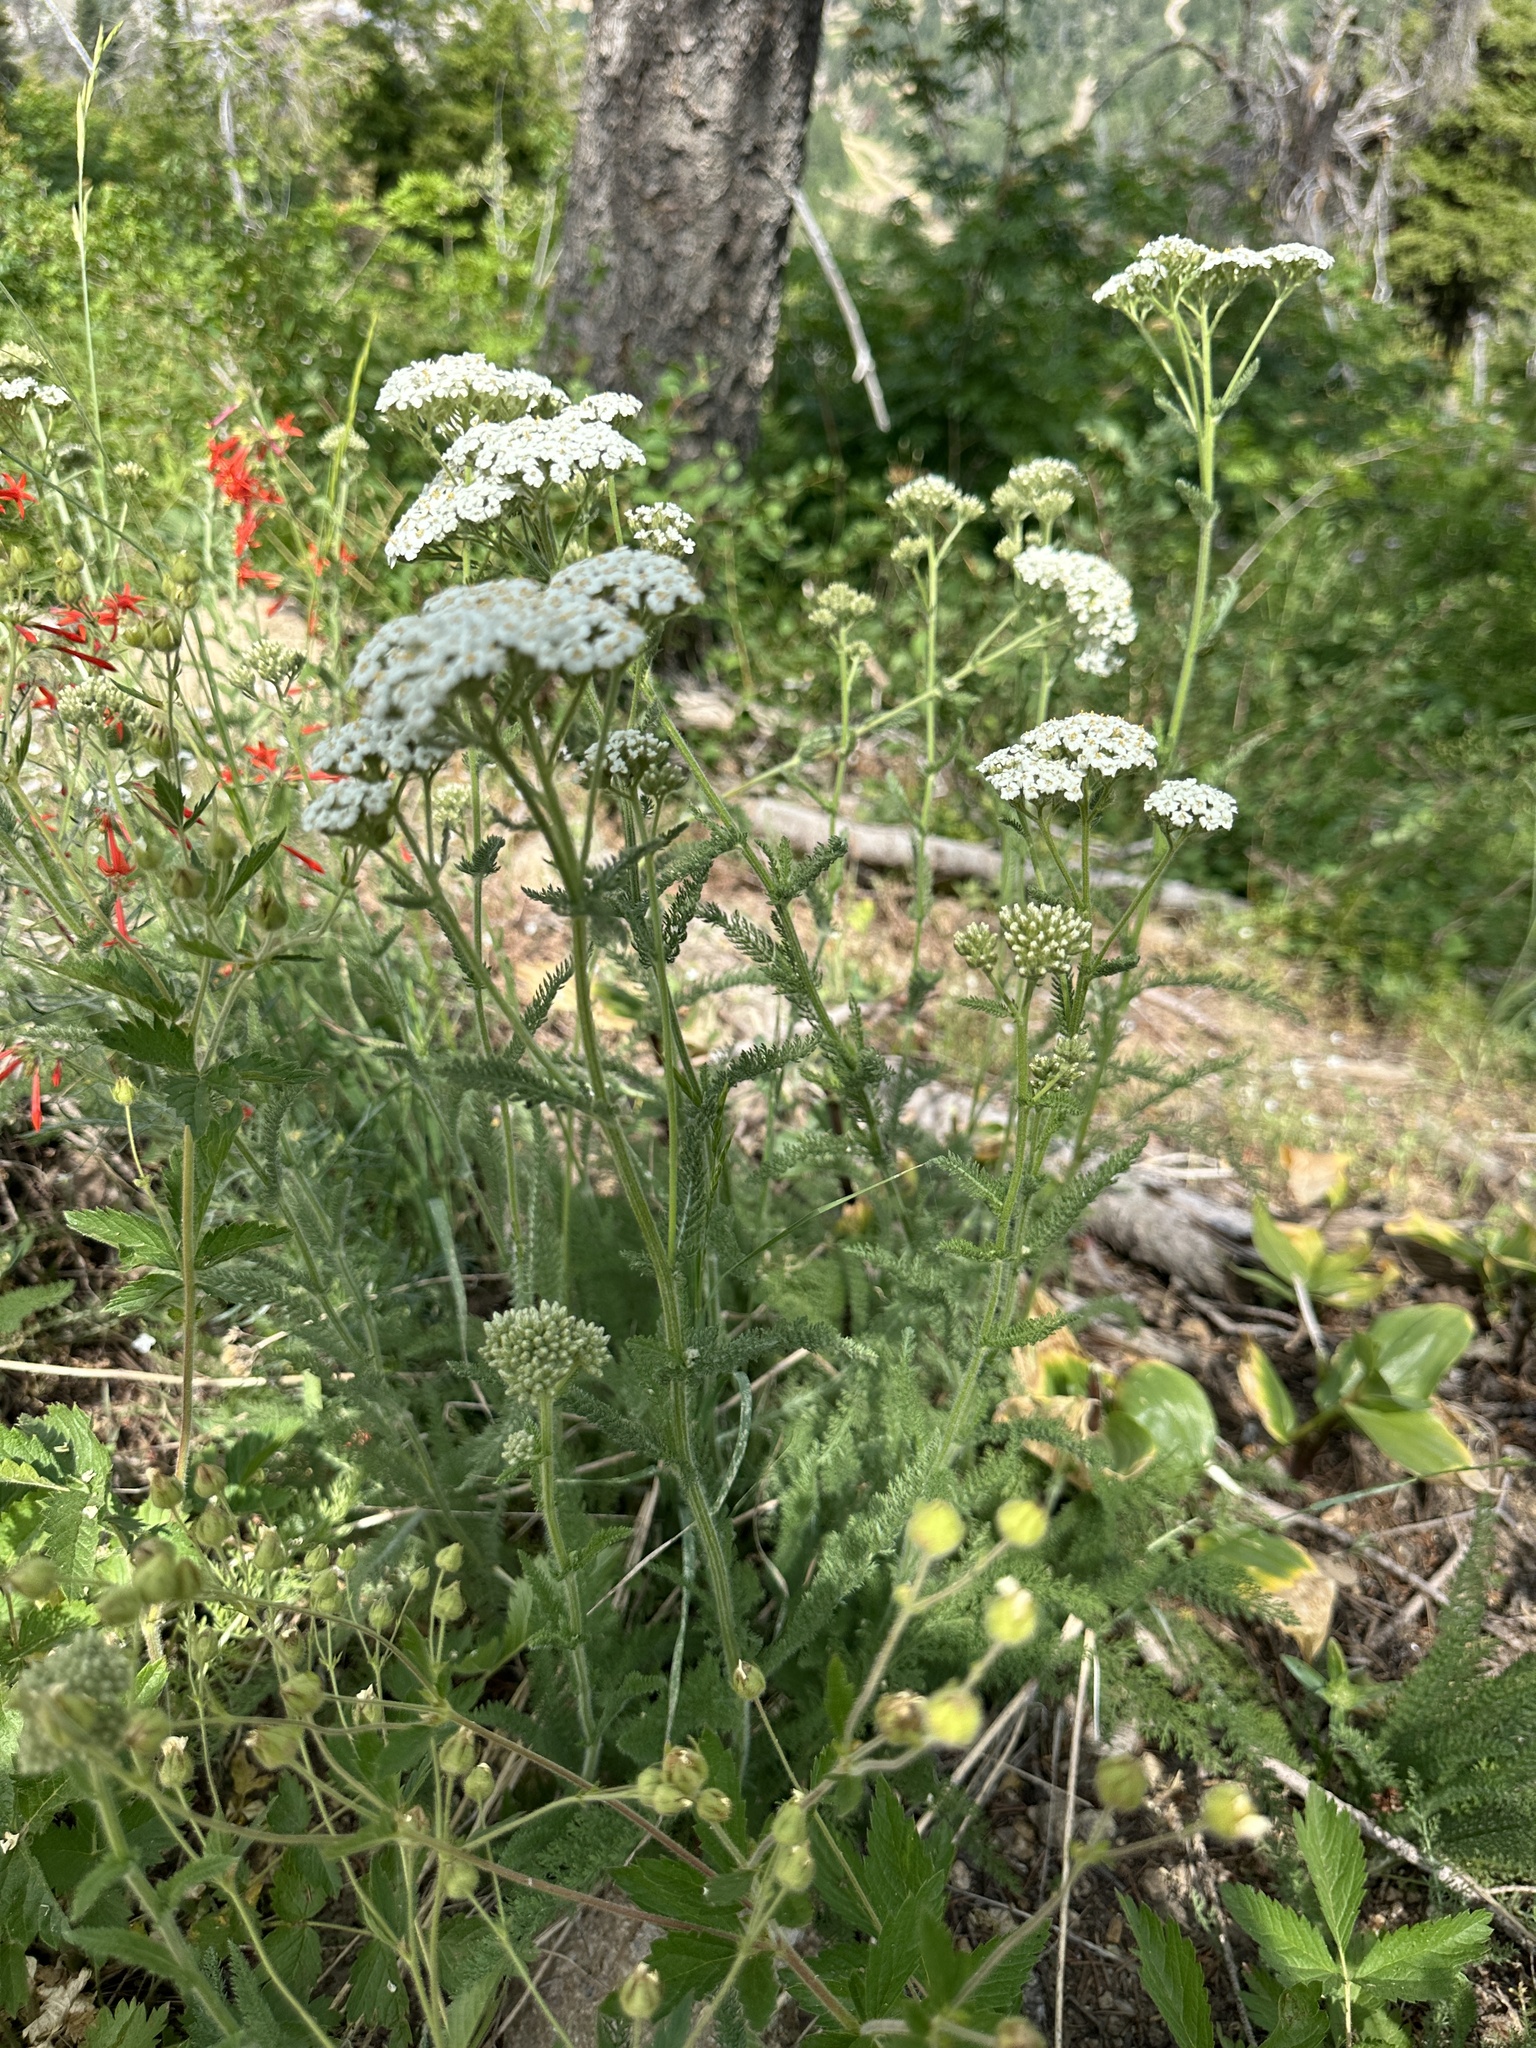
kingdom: Plantae
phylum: Tracheophyta
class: Magnoliopsida
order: Asterales
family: Asteraceae
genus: Achillea
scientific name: Achillea millefolium
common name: Yarrow
